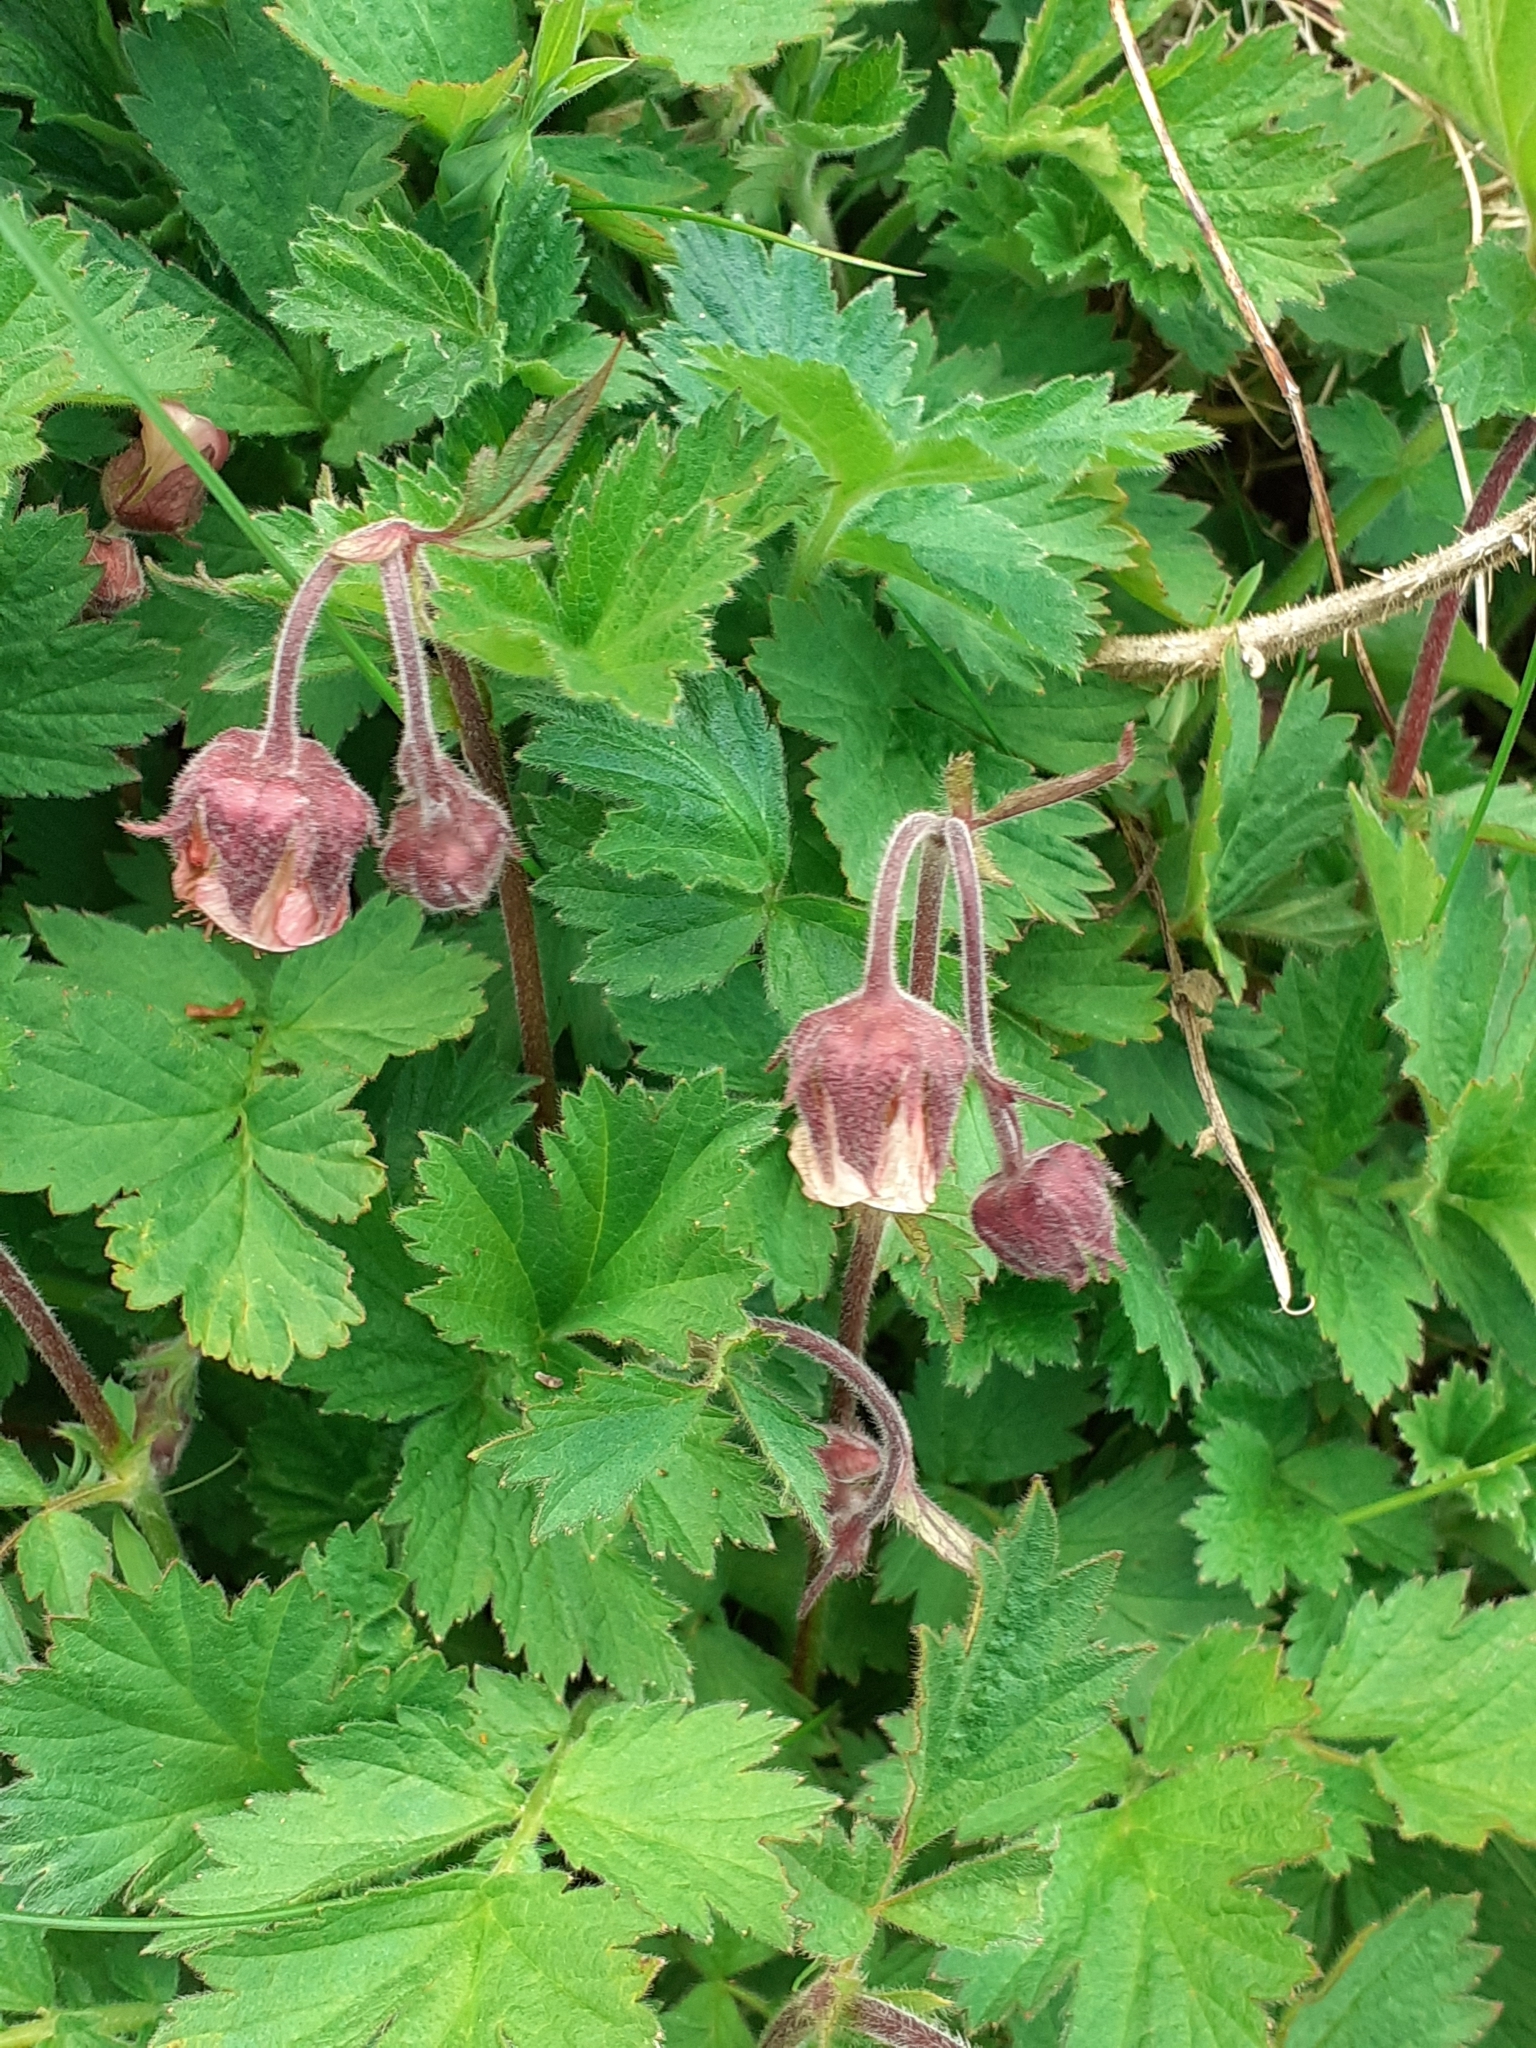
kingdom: Plantae
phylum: Tracheophyta
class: Magnoliopsida
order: Rosales
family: Rosaceae
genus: Geum
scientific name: Geum rivale
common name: Water avens
